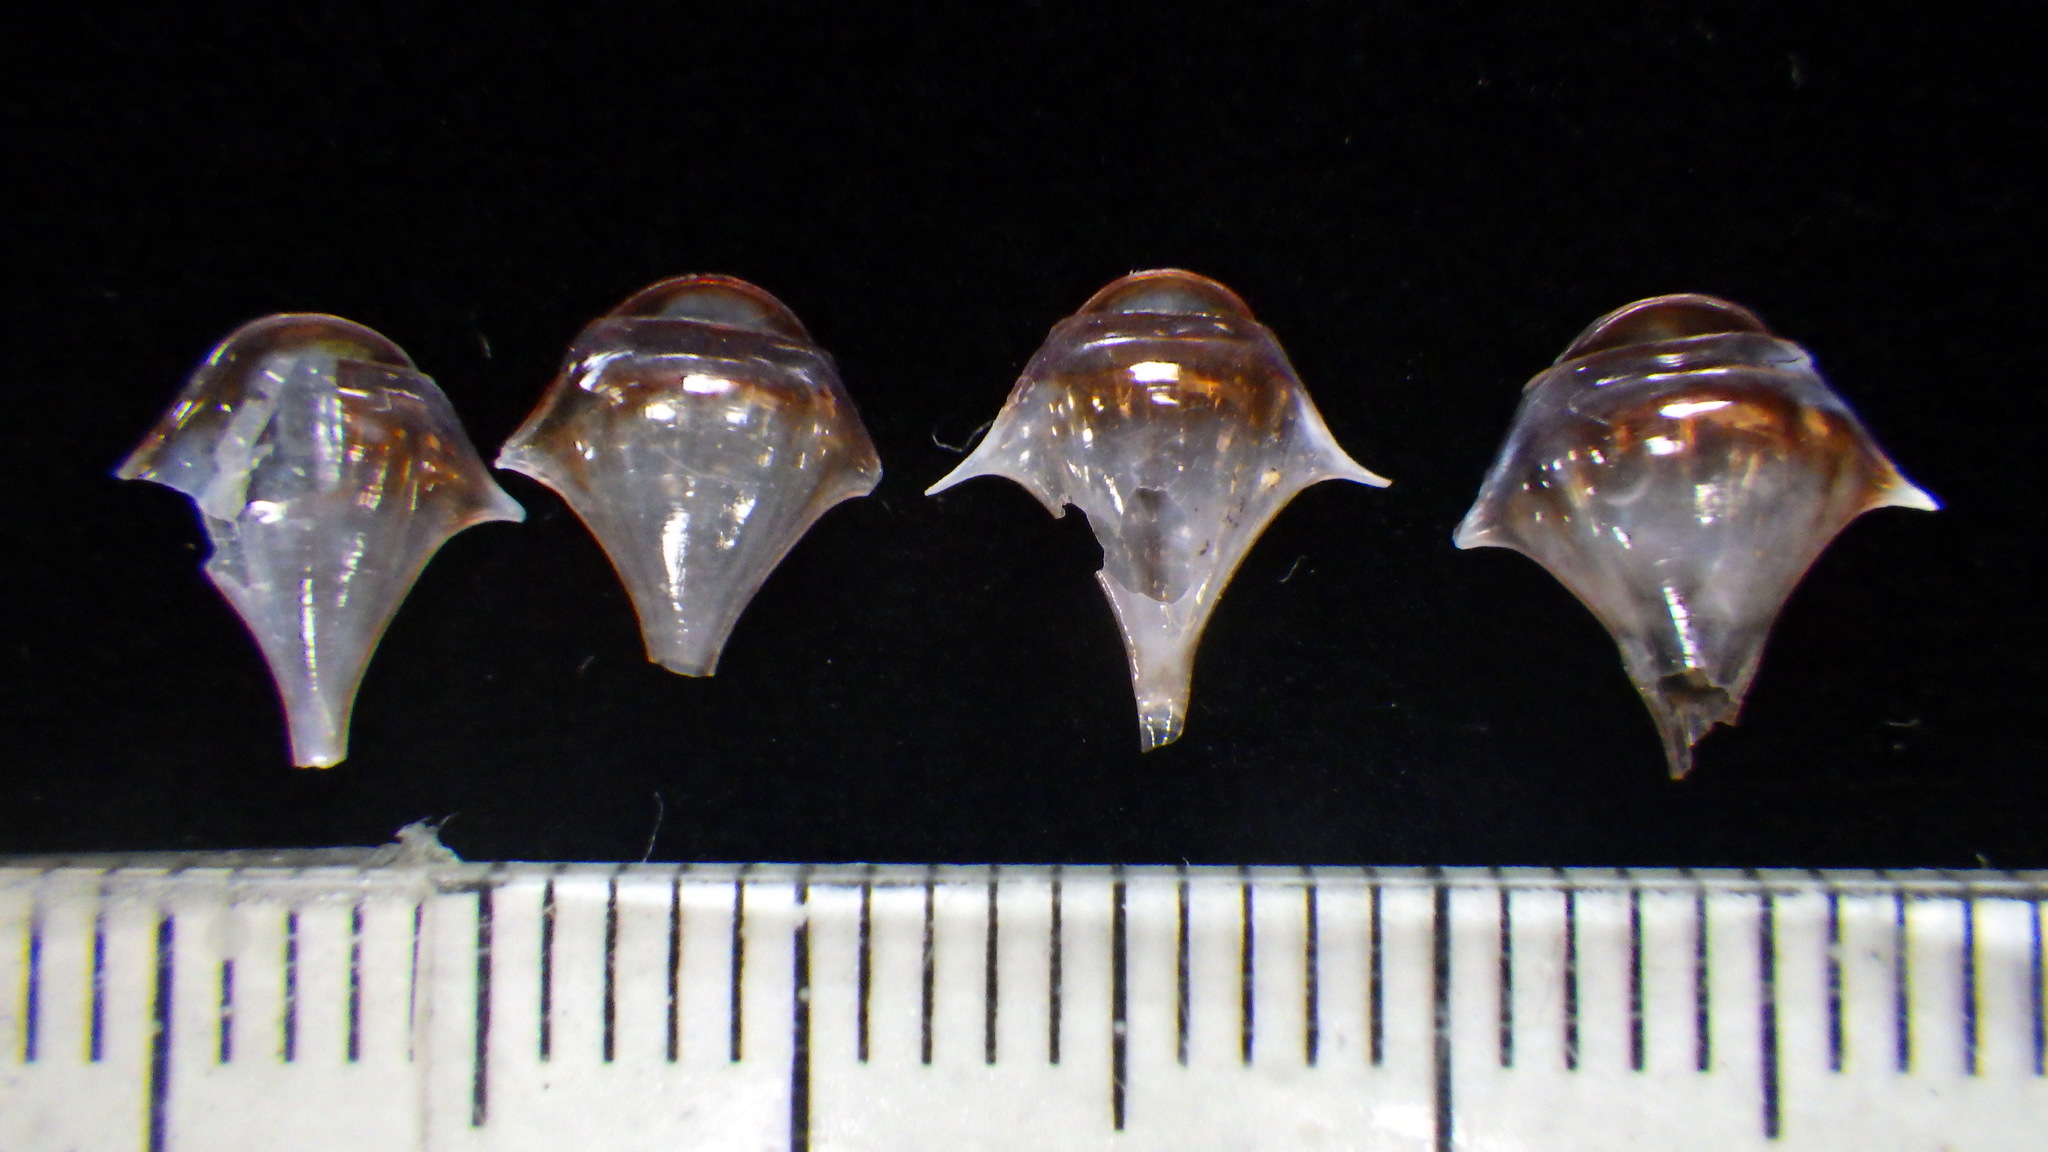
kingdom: Animalia
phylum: Mollusca
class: Gastropoda
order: Pteropoda
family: Cavoliniidae
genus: Diacria
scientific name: Diacria trispinosa
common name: Three-spine cavoline
